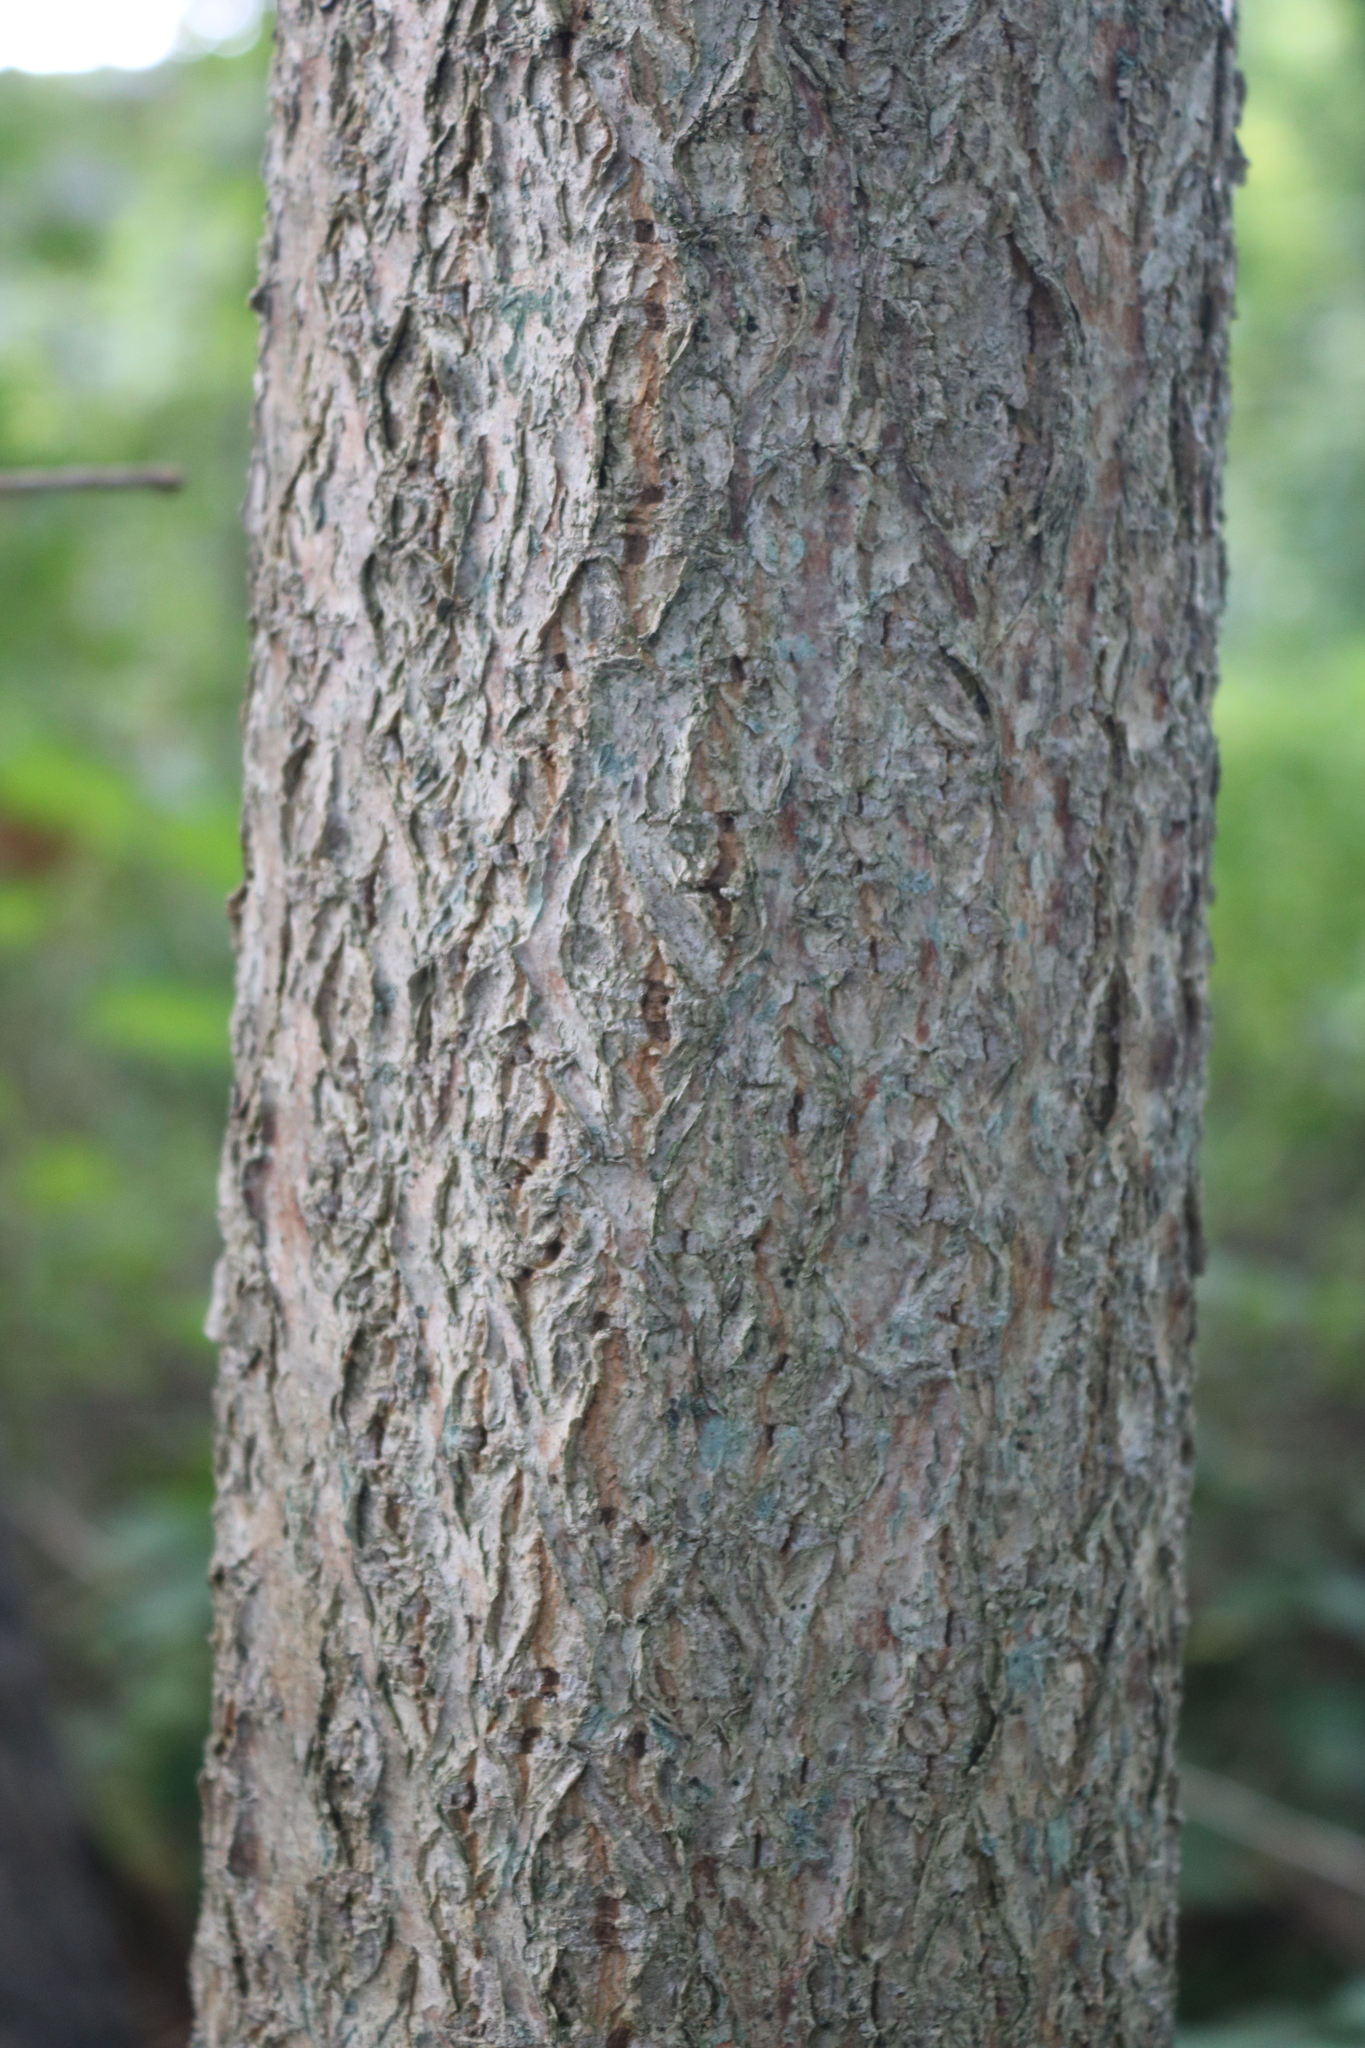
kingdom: Plantae
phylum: Tracheophyta
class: Magnoliopsida
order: Sapindales
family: Rutaceae
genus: Phellodendron
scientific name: Phellodendron amurense
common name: Amur corktree
